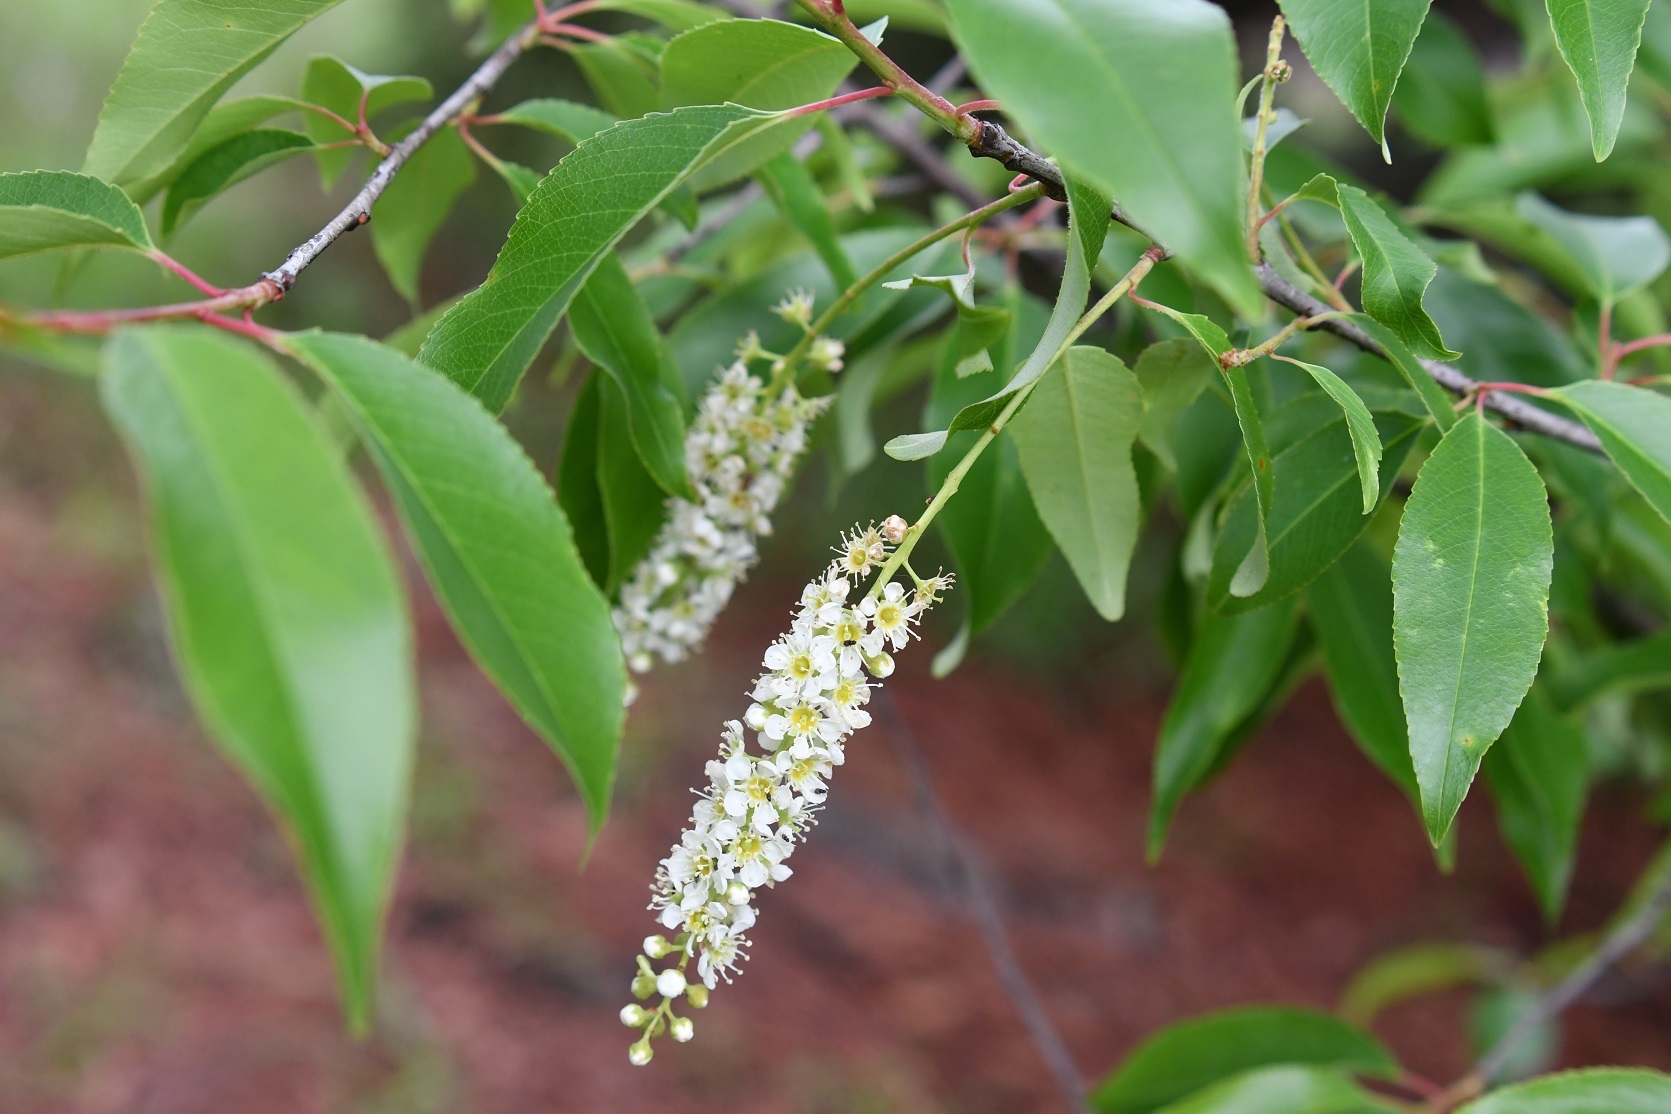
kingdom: Plantae
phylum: Tracheophyta
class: Magnoliopsida
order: Rosales
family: Rosaceae
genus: Prunus
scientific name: Prunus serotina
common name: Black cherry
